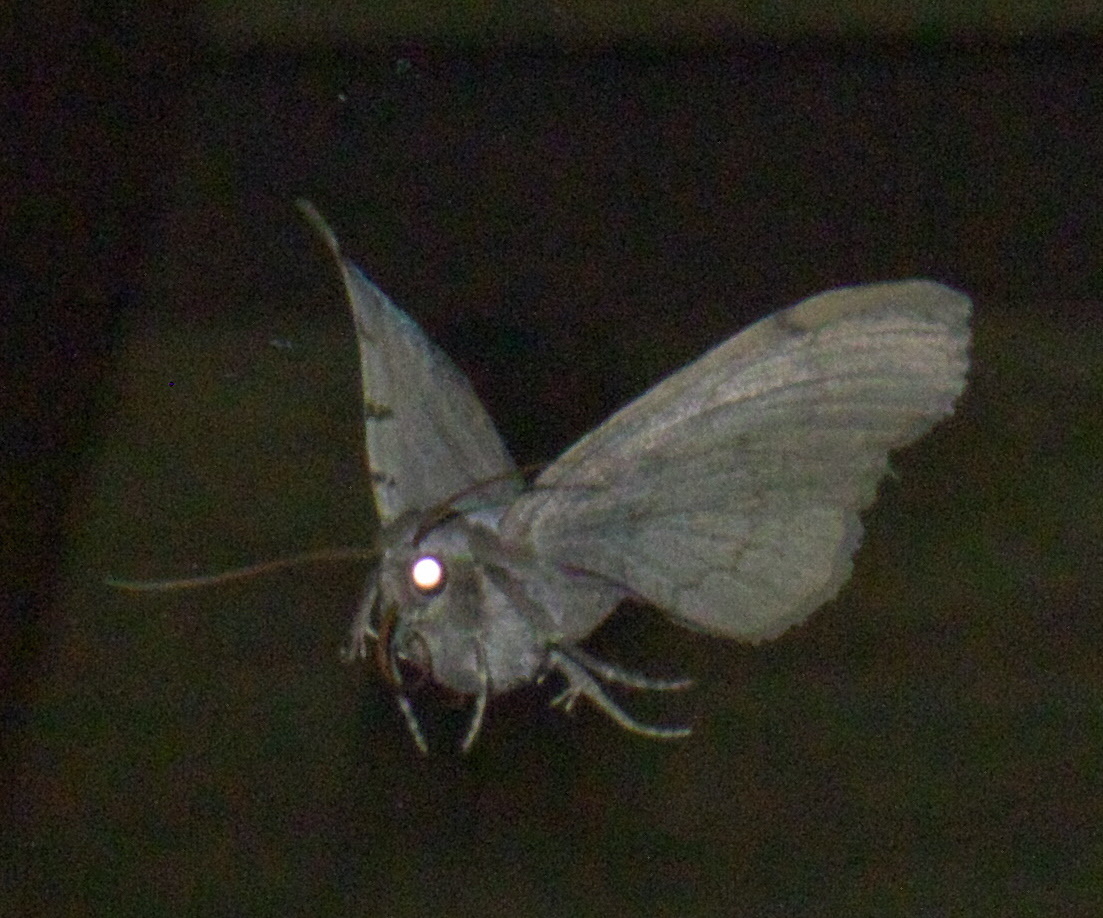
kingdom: Animalia
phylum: Arthropoda
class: Insecta
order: Lepidoptera
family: Erebidae
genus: Spiloloma
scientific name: Spiloloma lunilinea
